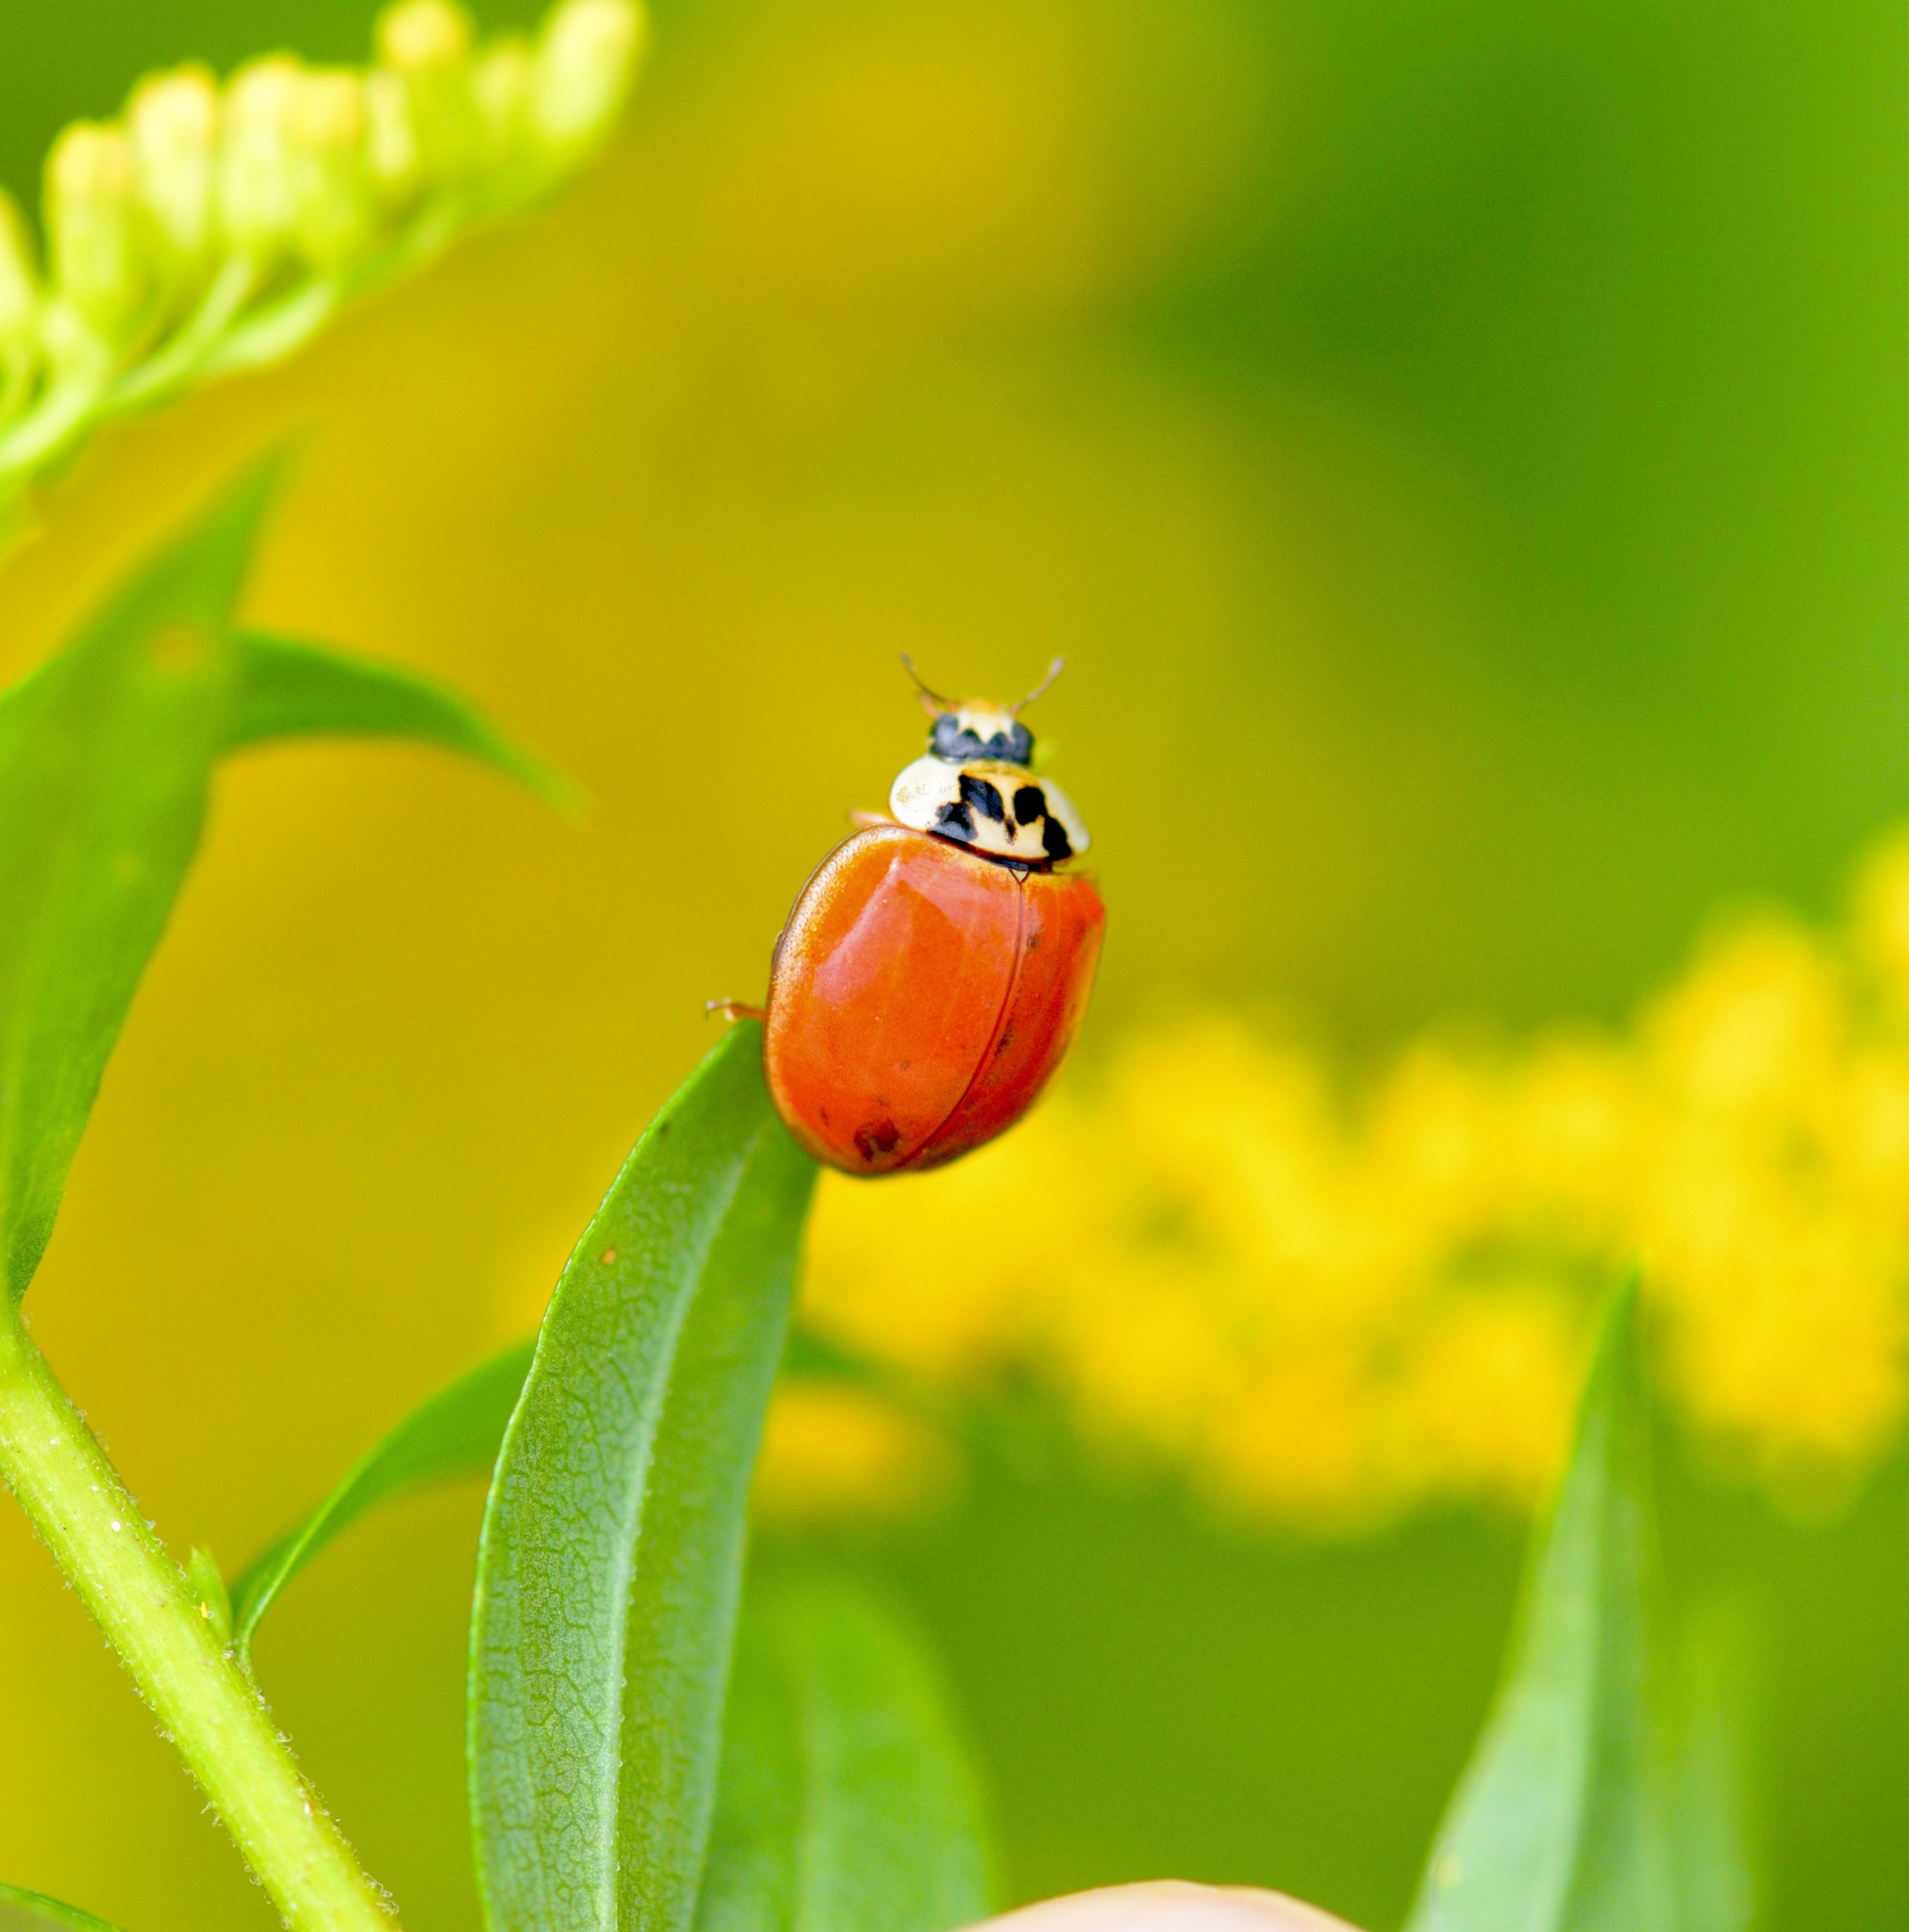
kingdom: Animalia
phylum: Arthropoda
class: Insecta
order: Coleoptera
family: Coccinellidae
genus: Harmonia
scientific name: Harmonia axyridis
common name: Harlequin ladybird
